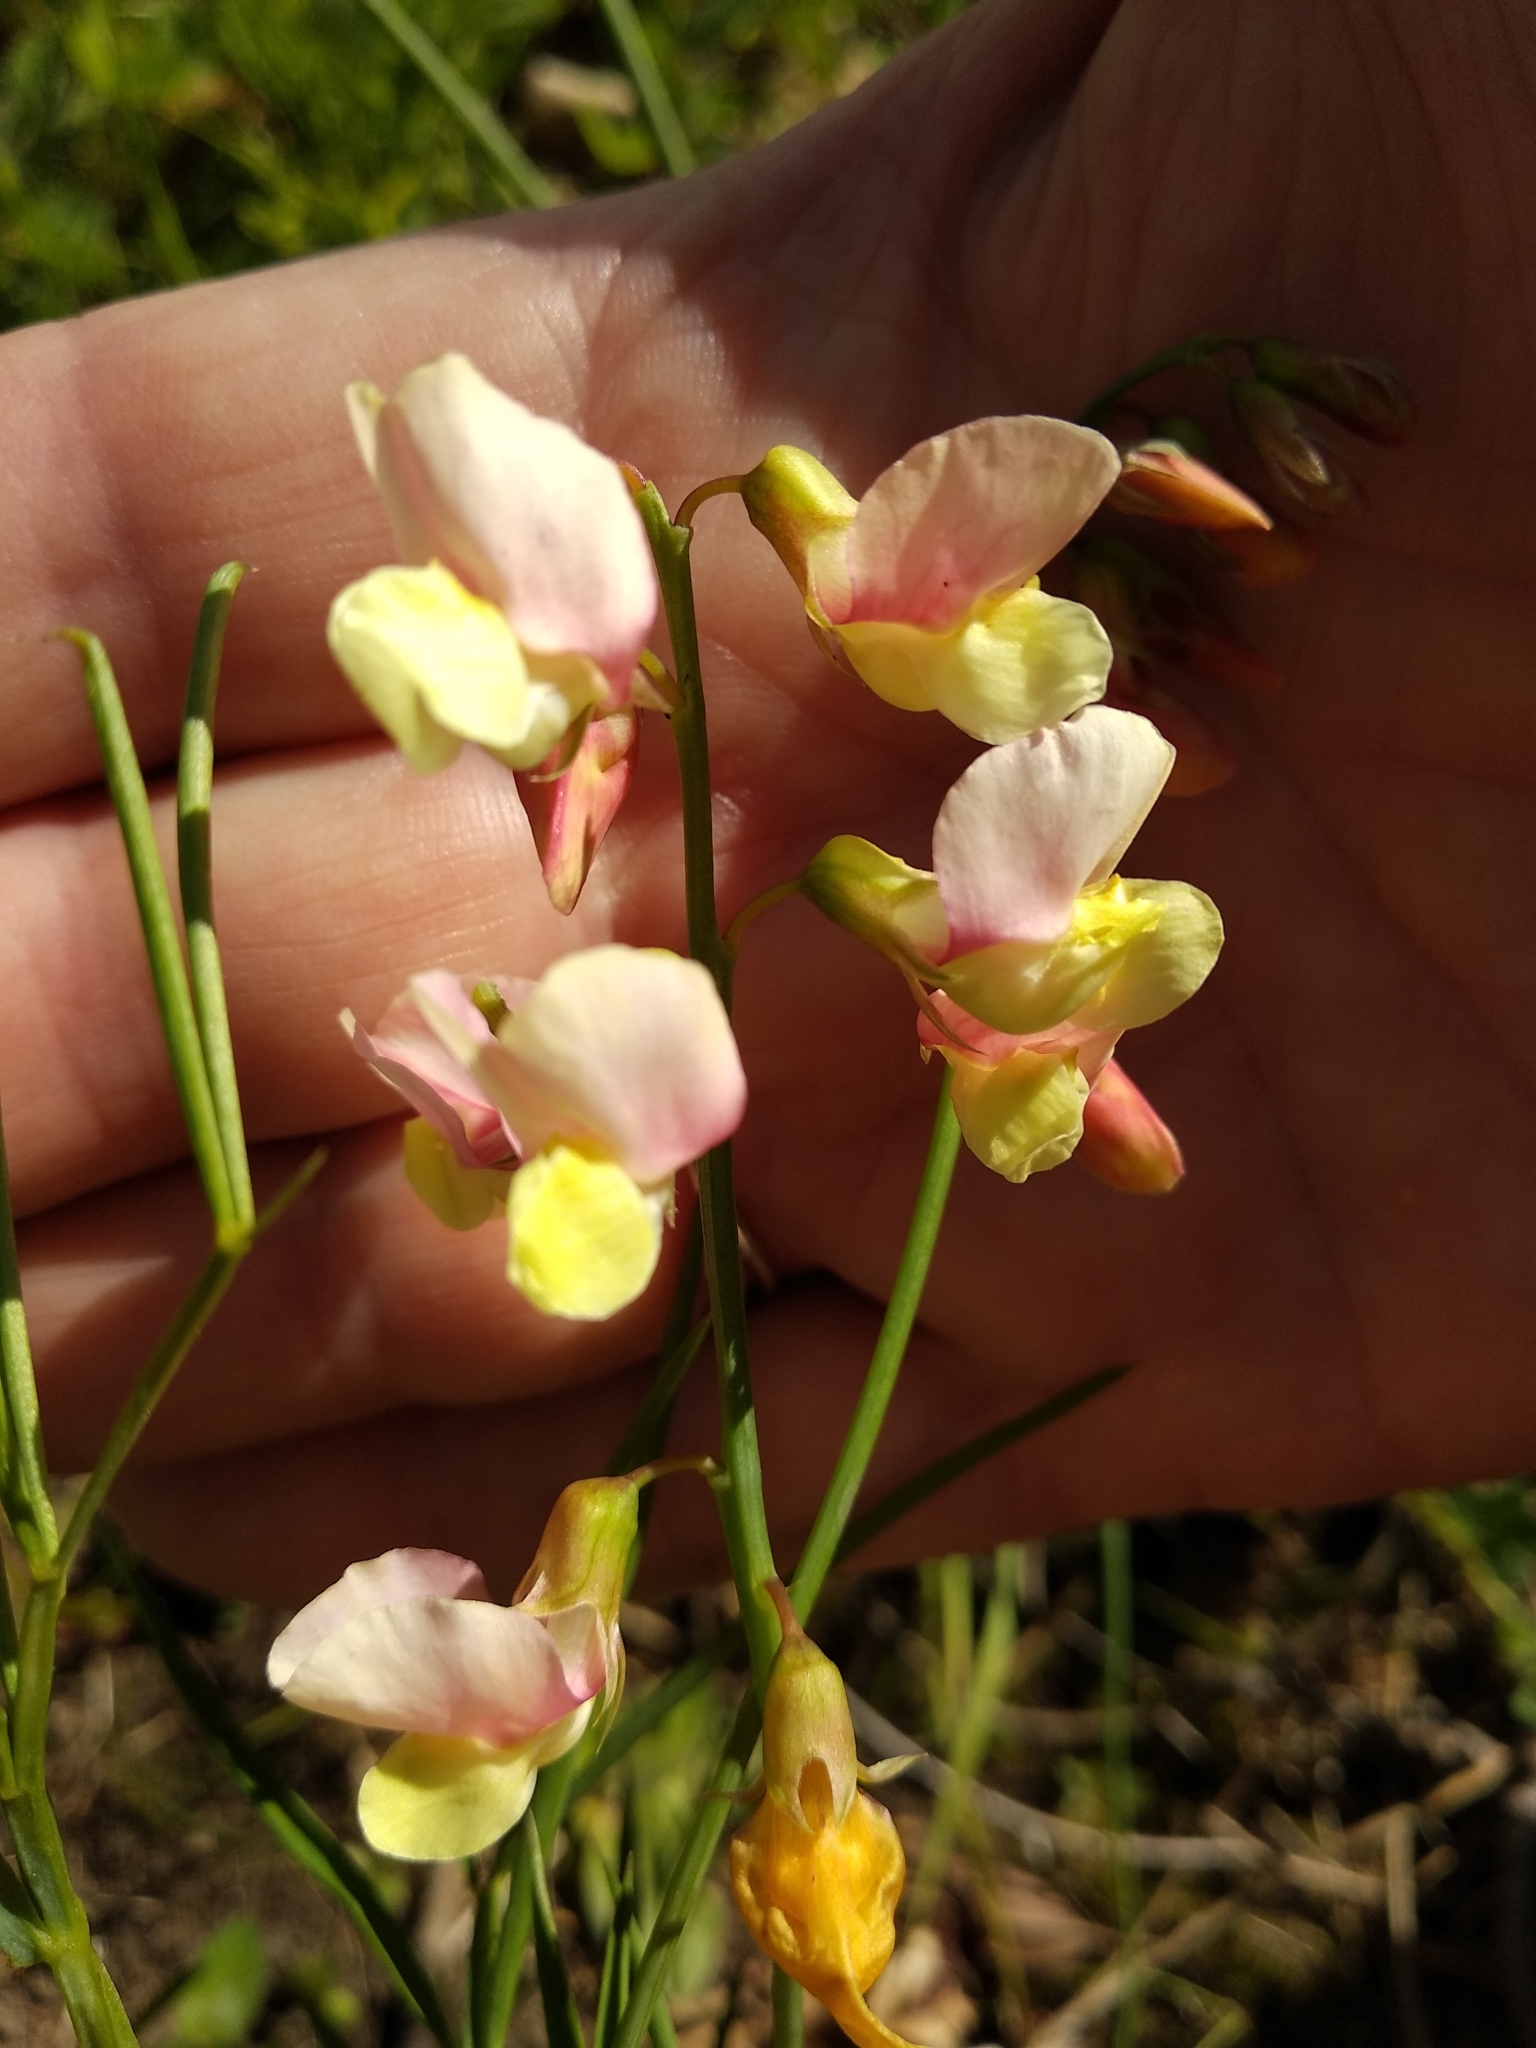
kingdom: Plantae
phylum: Tracheophyta
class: Magnoliopsida
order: Fabales
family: Fabaceae
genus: Lathyrus
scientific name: Lathyrus pannonicus
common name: Pea
